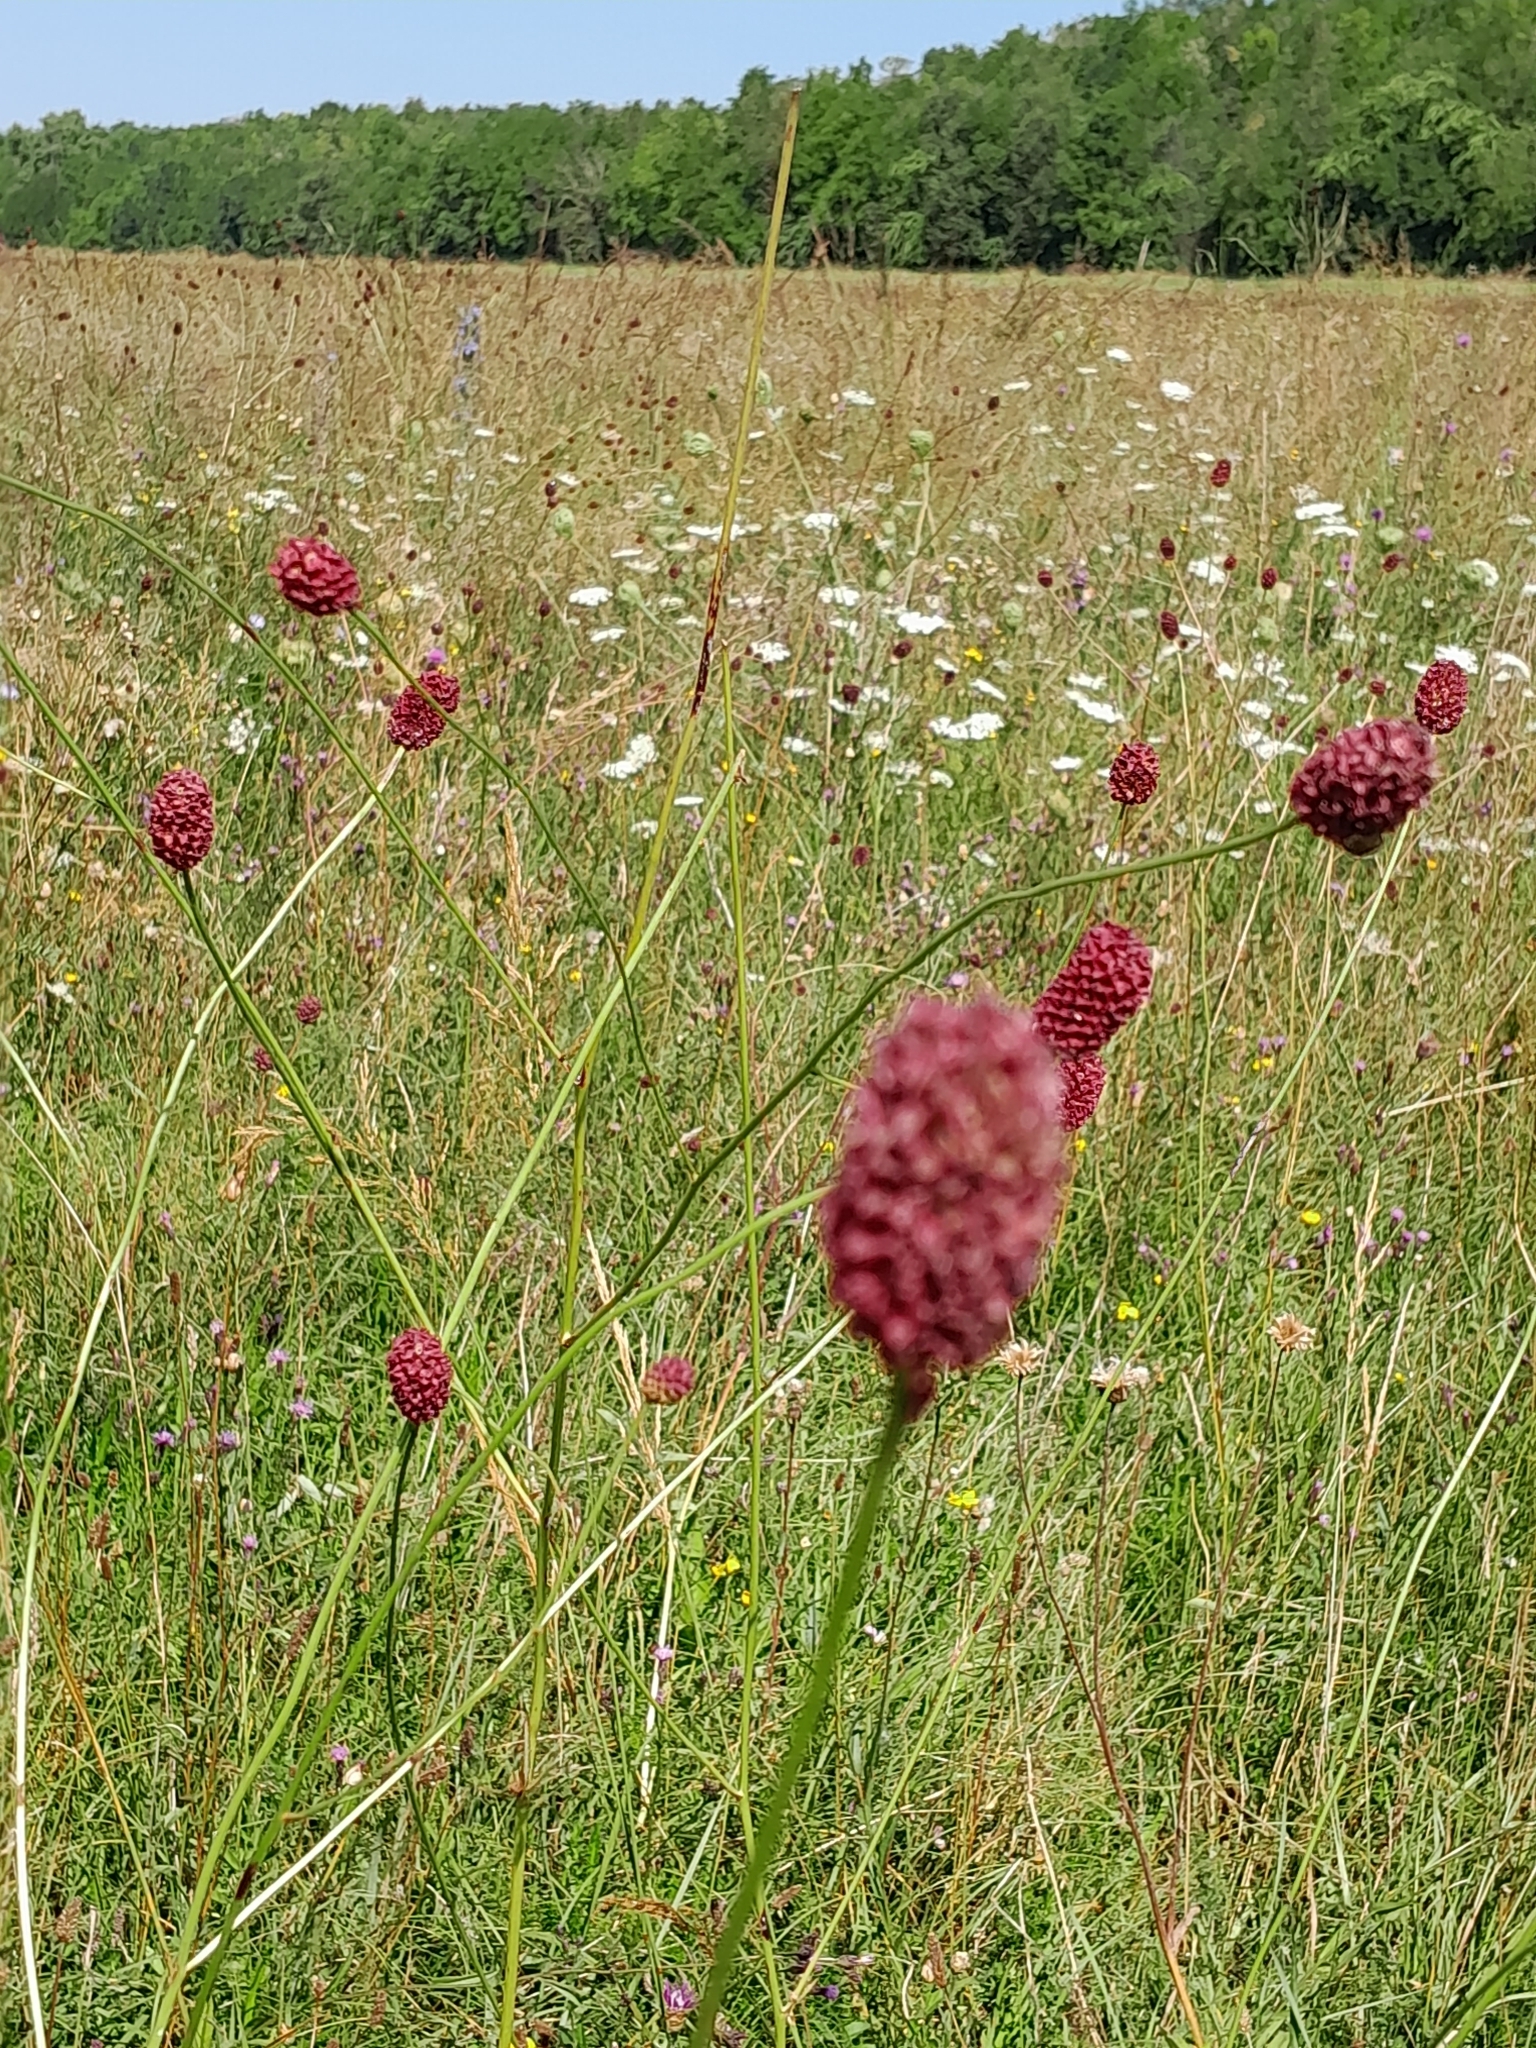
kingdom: Plantae
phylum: Tracheophyta
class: Magnoliopsida
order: Rosales
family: Rosaceae
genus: Sanguisorba
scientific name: Sanguisorba officinalis
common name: Great burnet
